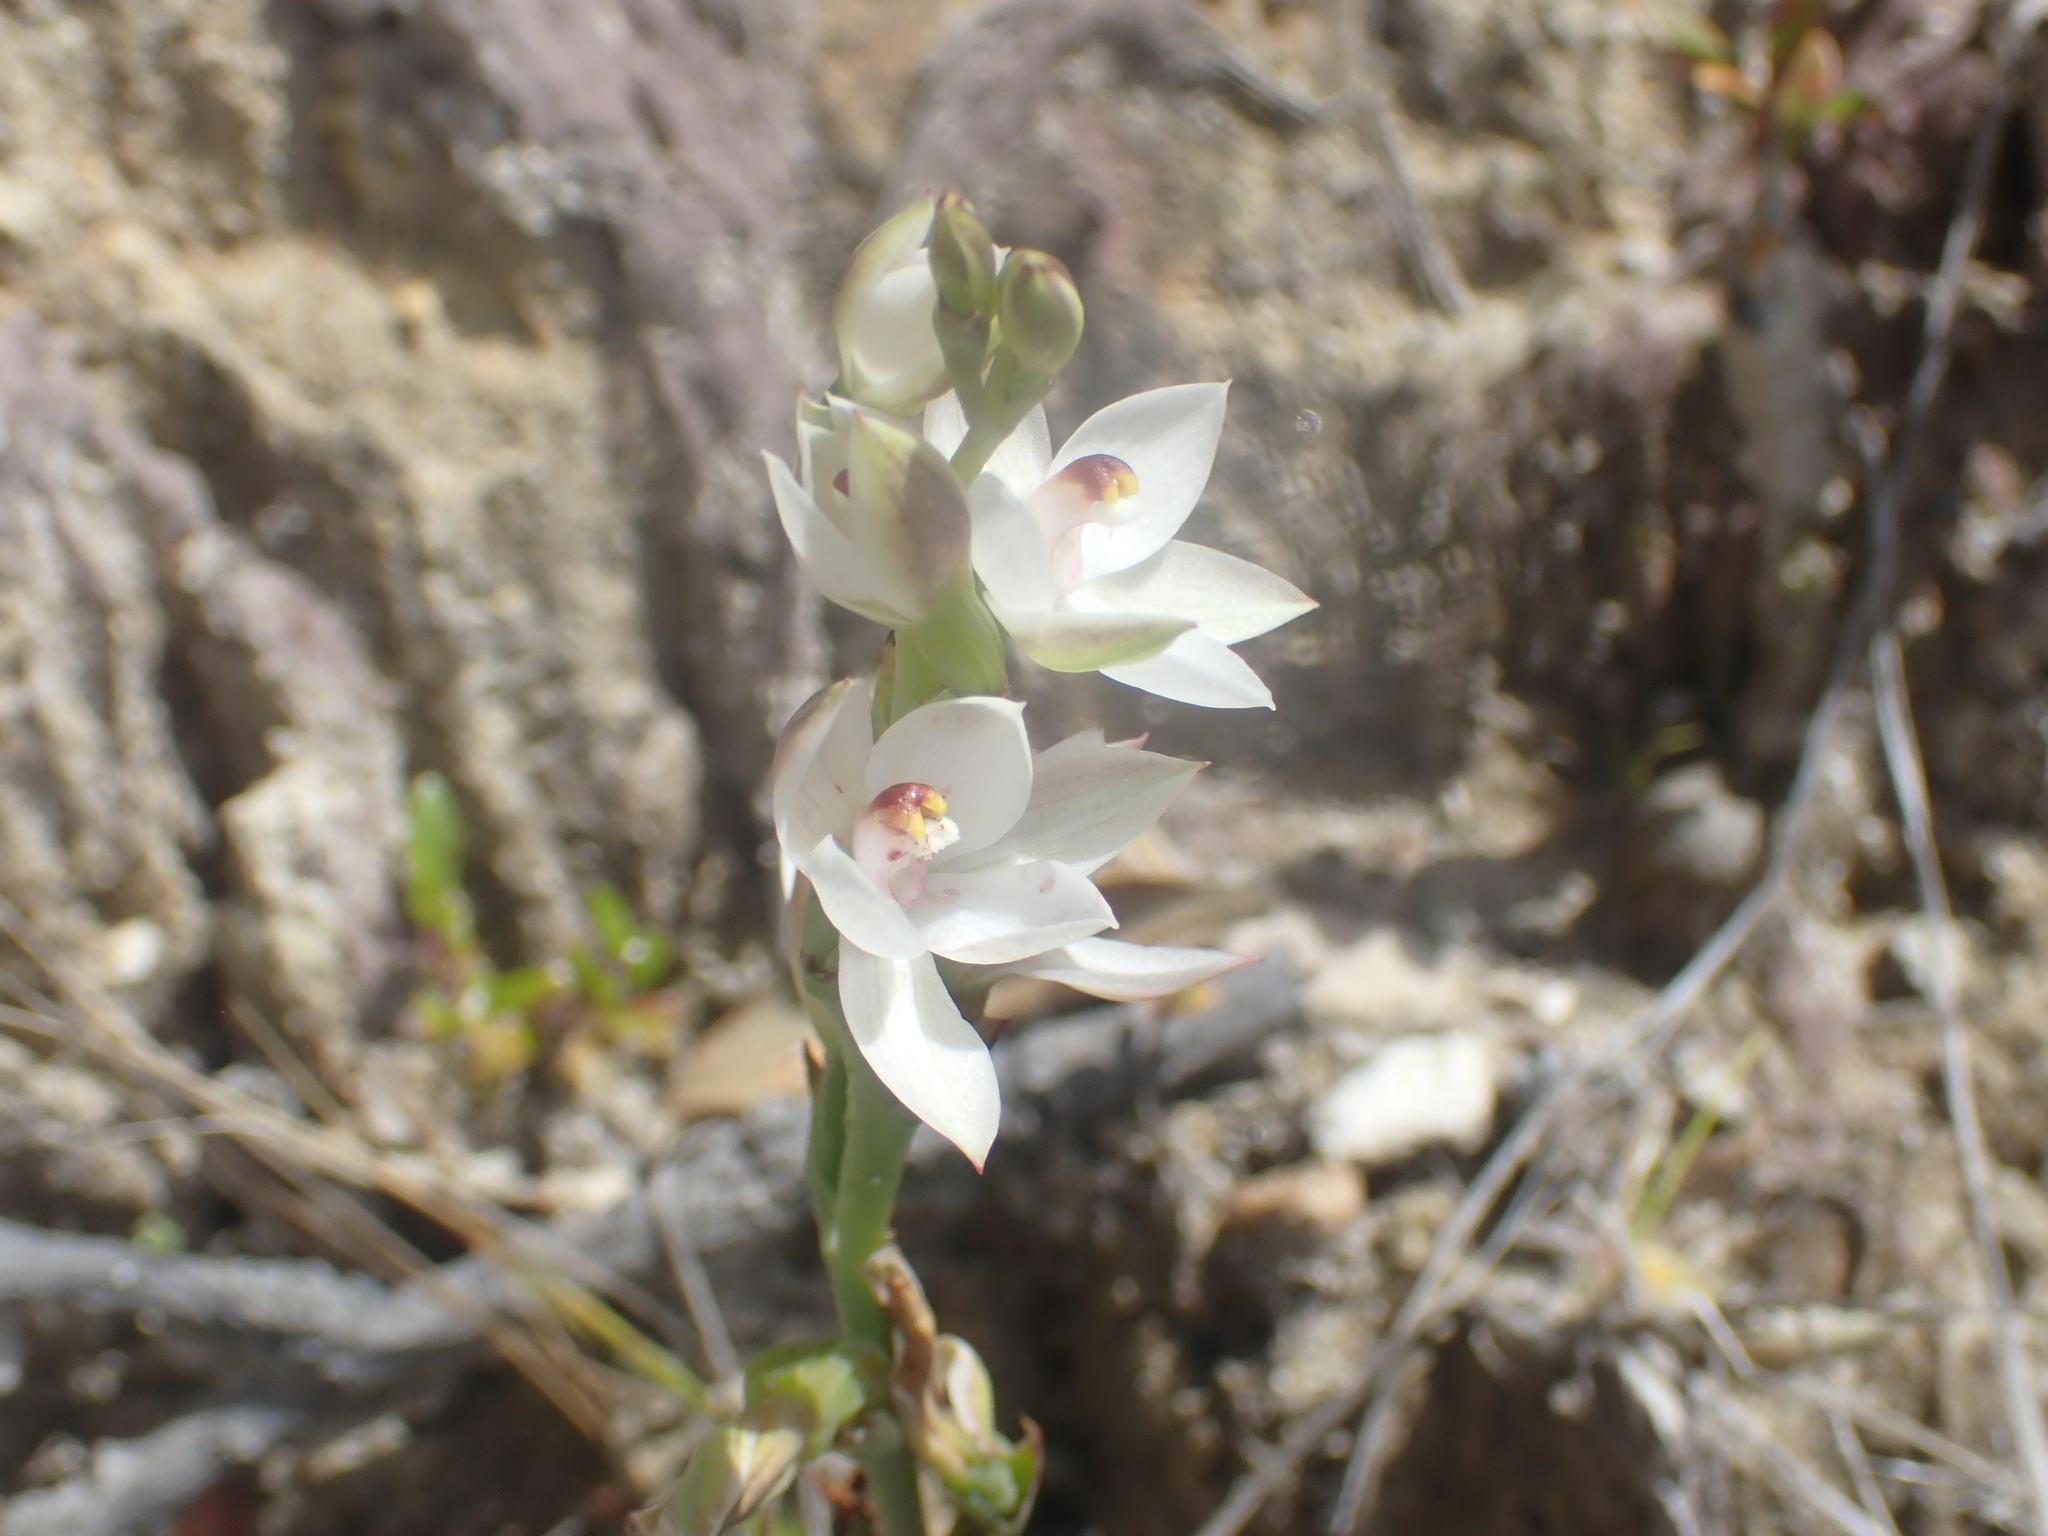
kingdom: Plantae
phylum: Tracheophyta
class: Liliopsida
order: Asparagales
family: Orchidaceae
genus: Thelymitra
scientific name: Thelymitra longifolia
